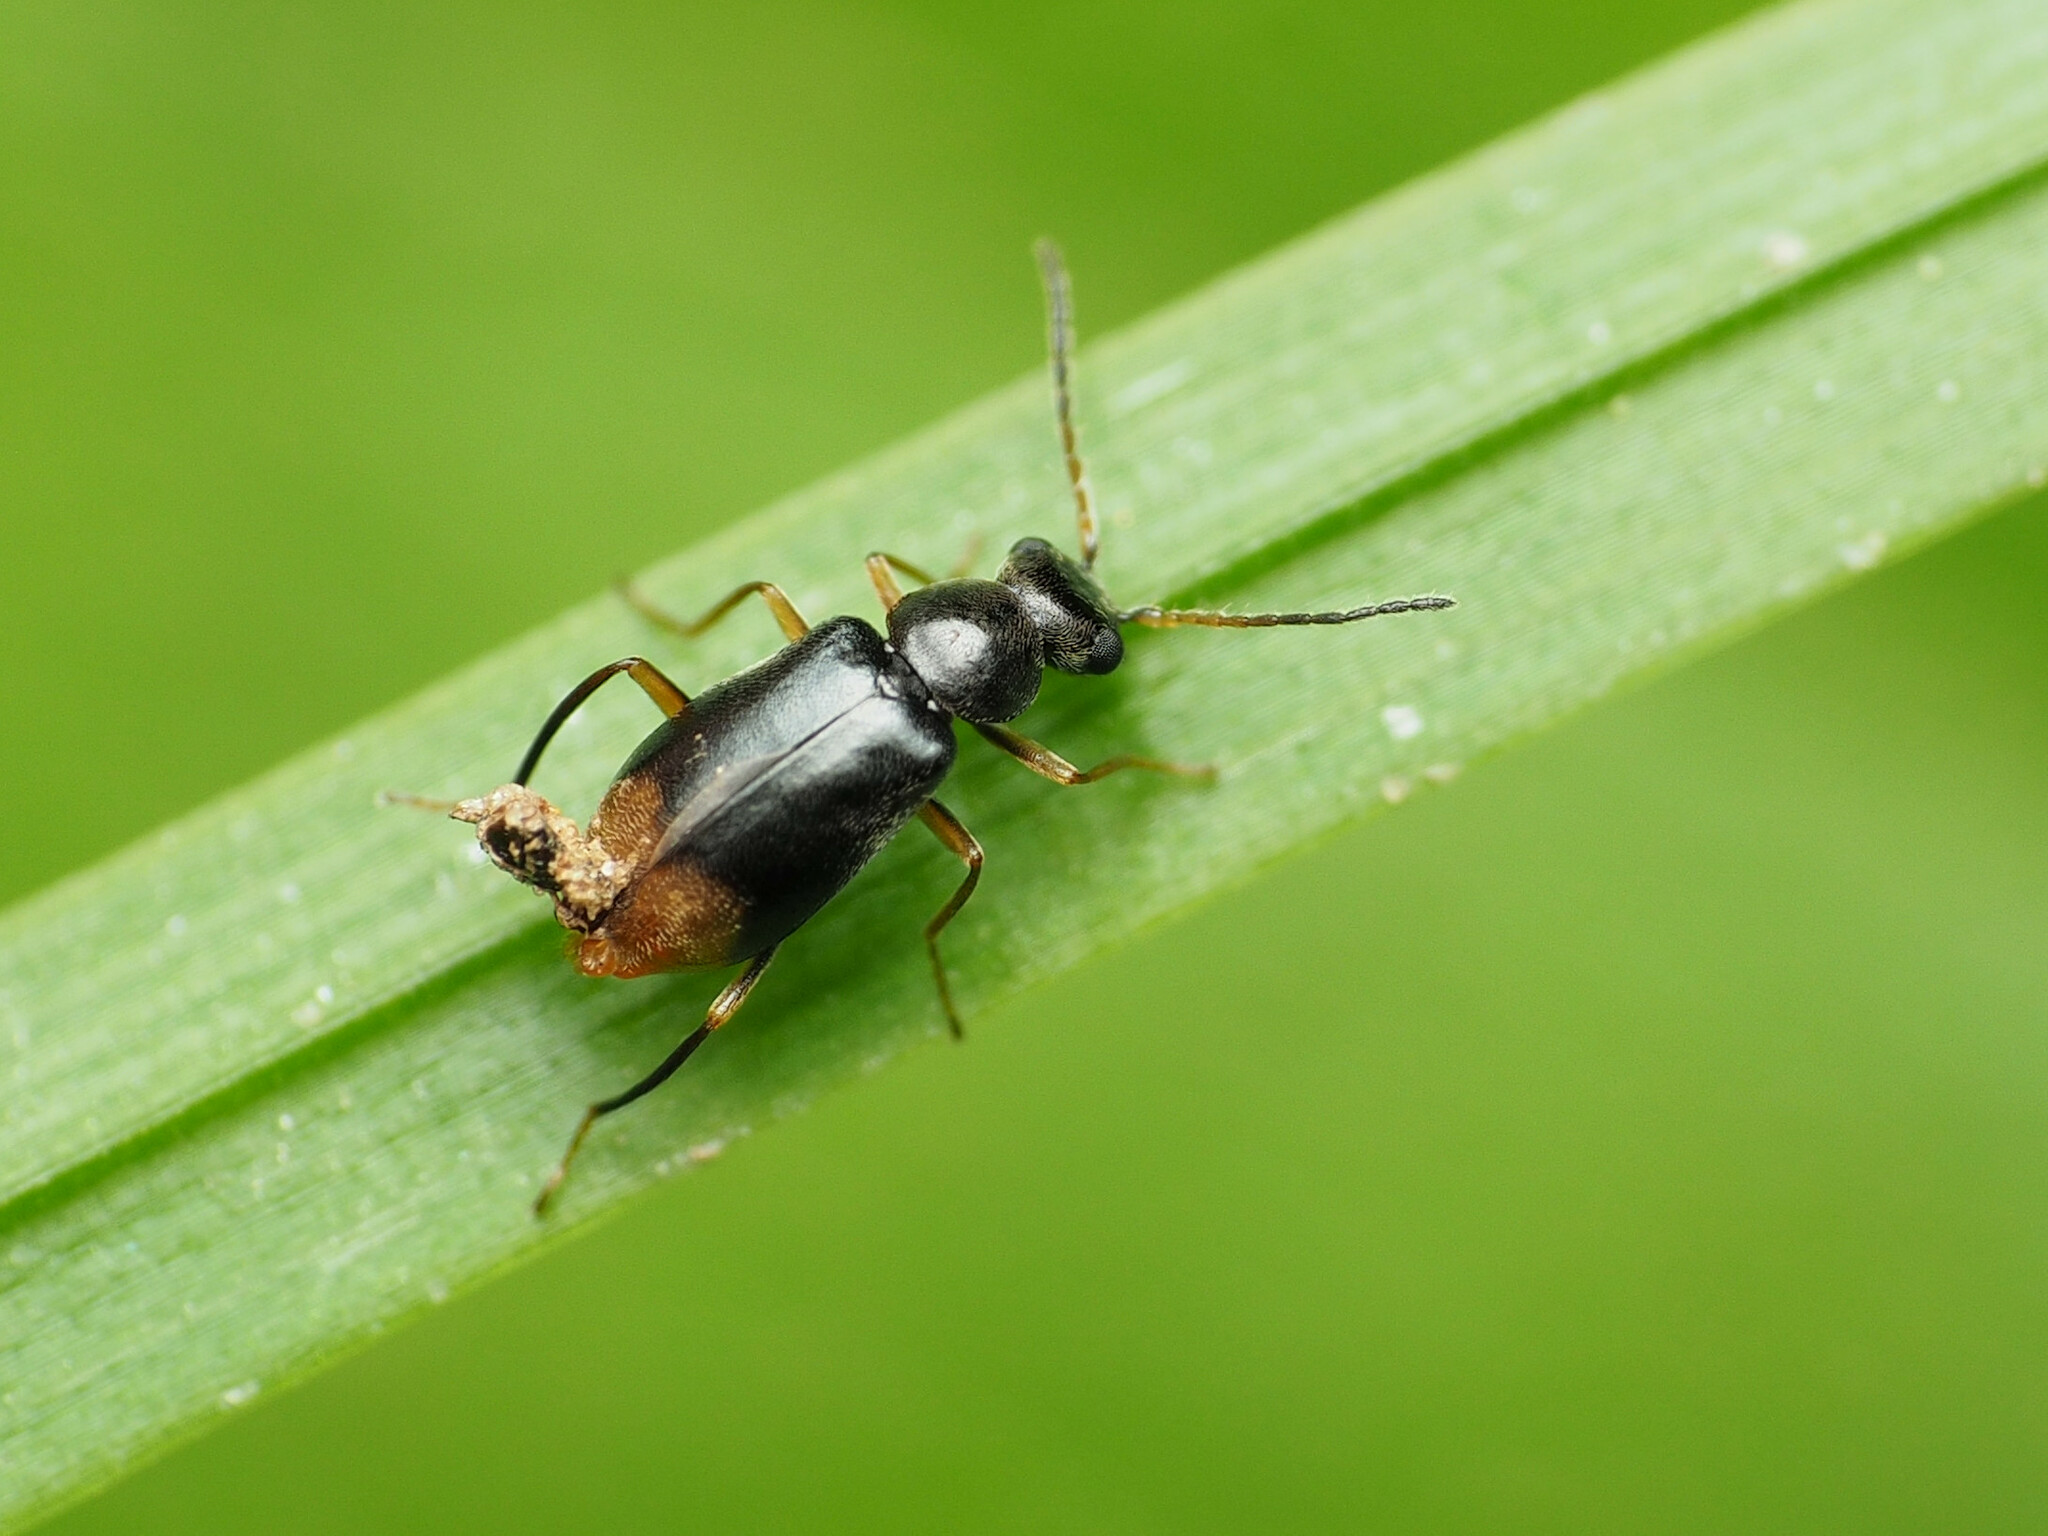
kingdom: Animalia
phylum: Arthropoda
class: Insecta
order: Coleoptera
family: Melyridae
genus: Hypebaeus
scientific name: Hypebaeus
